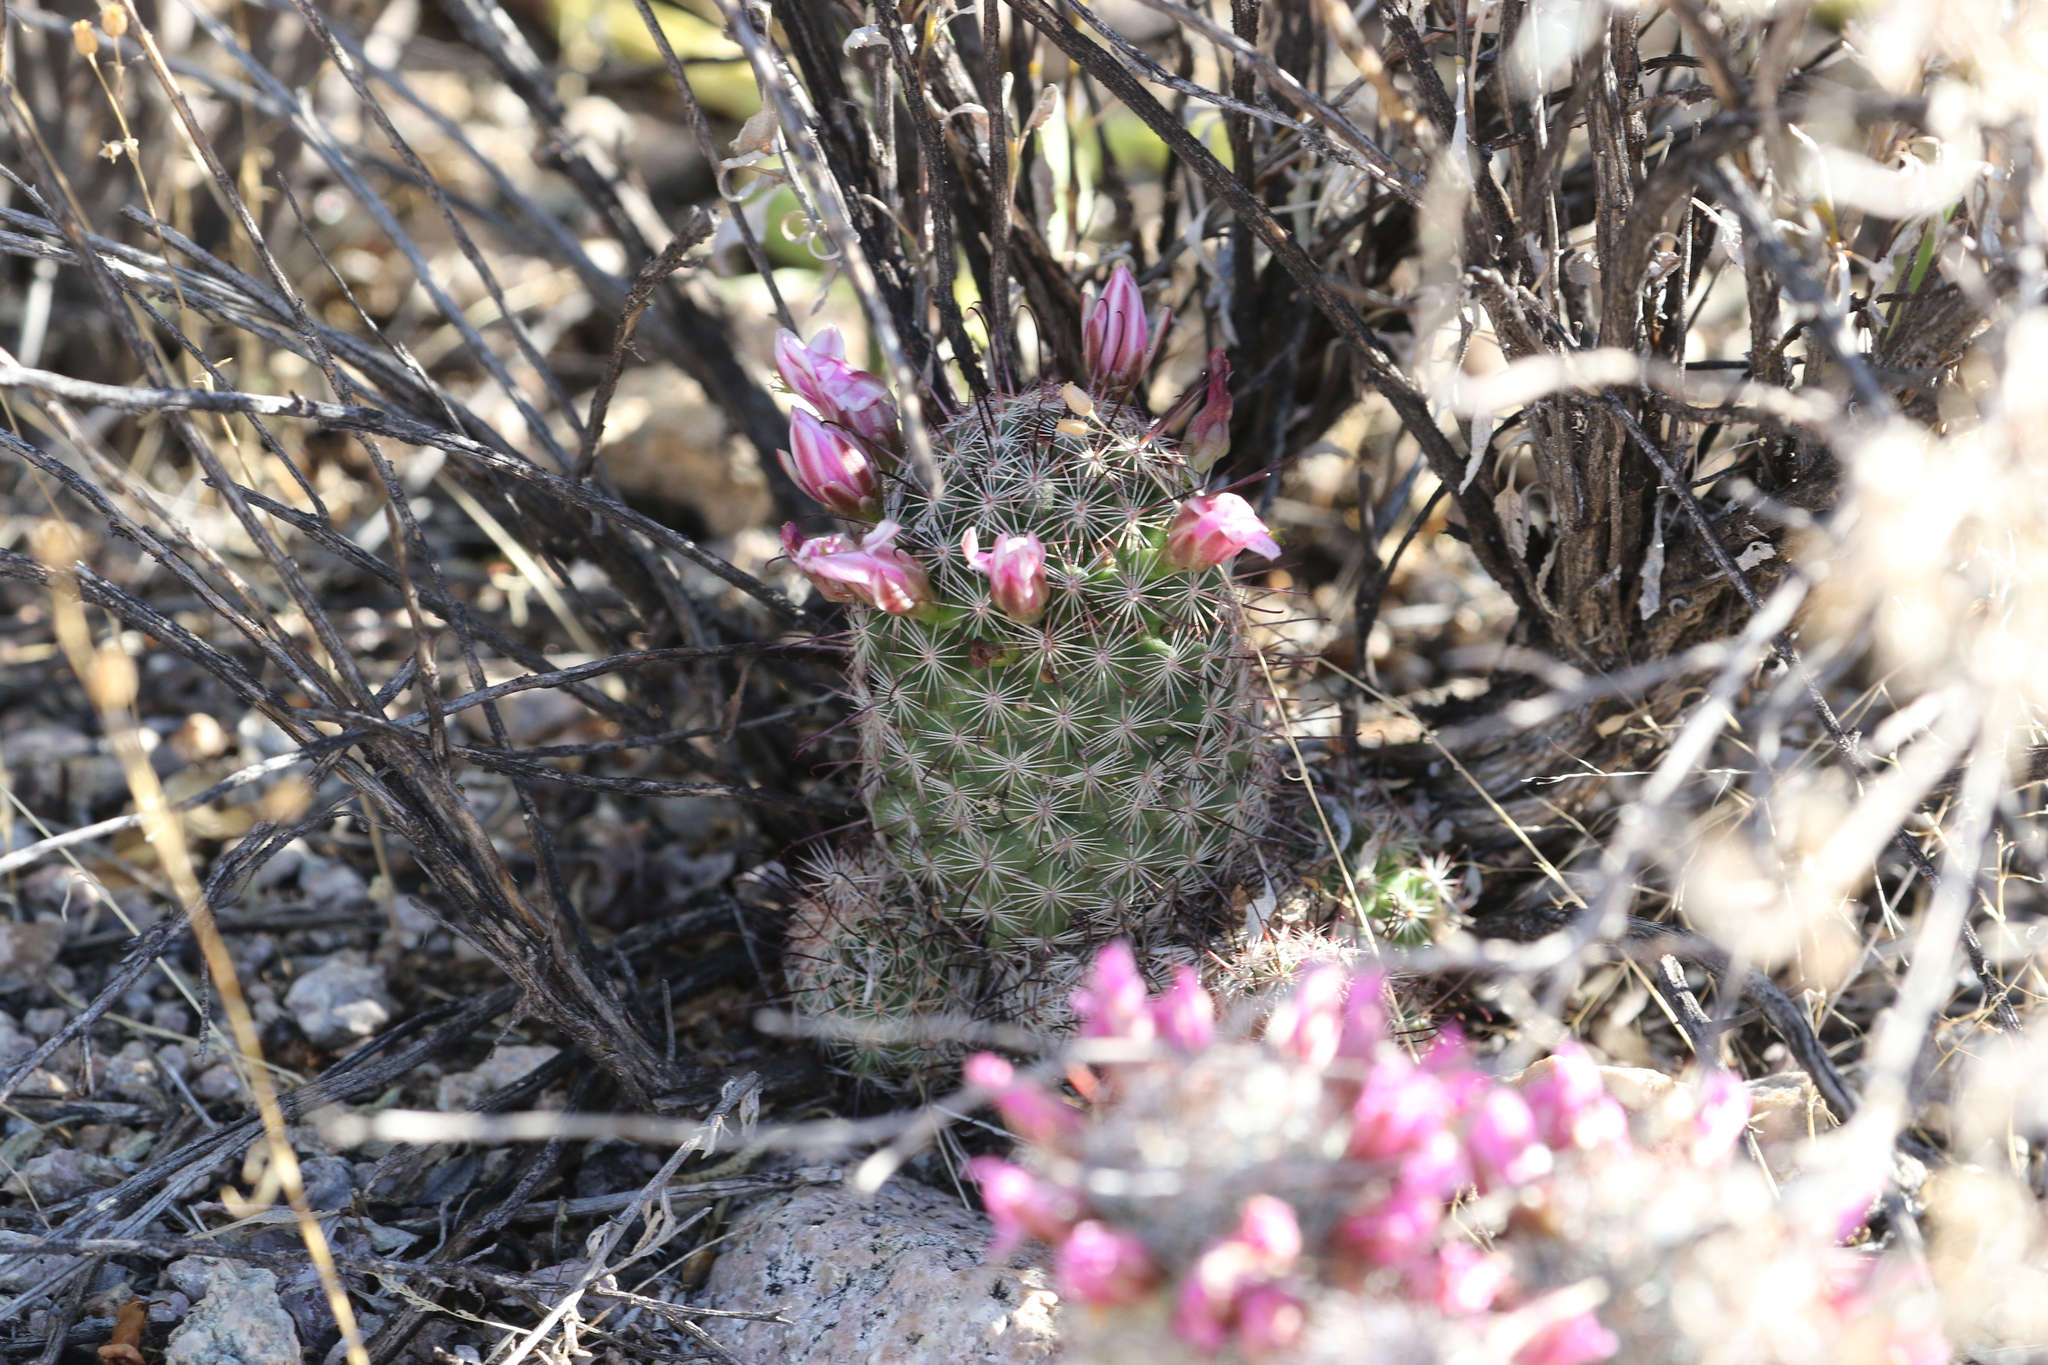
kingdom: Plantae
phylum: Tracheophyta
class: Magnoliopsida
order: Caryophyllales
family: Cactaceae
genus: Cochemiea
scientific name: Cochemiea grahamii
